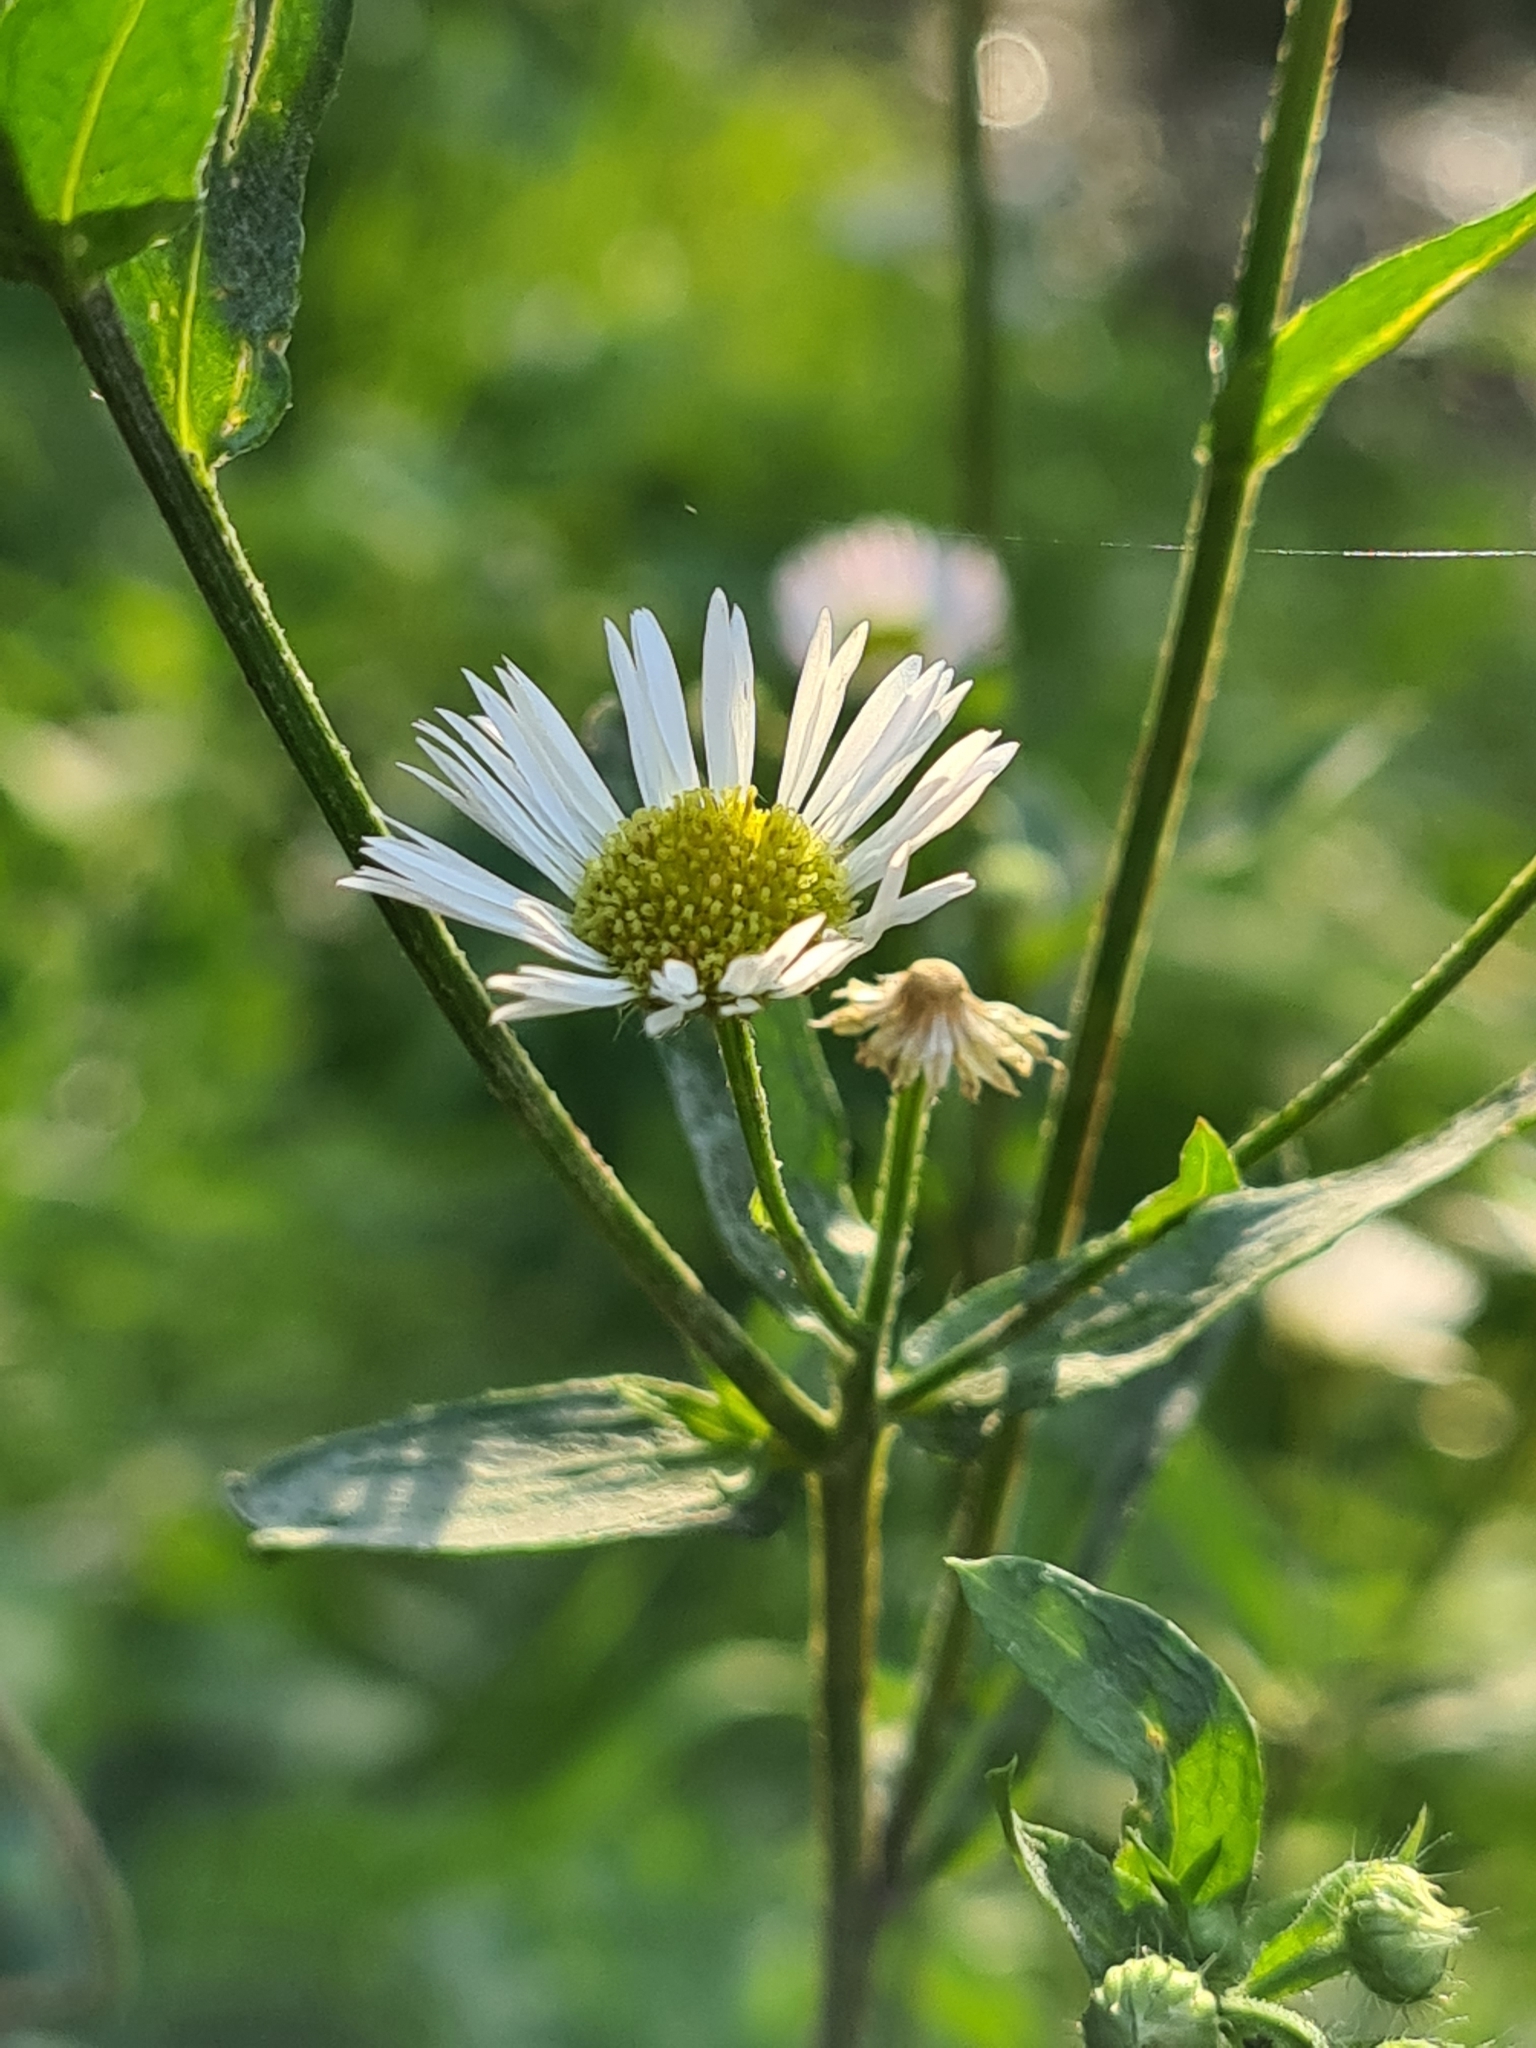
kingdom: Plantae
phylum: Tracheophyta
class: Magnoliopsida
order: Asterales
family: Asteraceae
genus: Erigeron
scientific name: Erigeron annuus
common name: Tall fleabane
